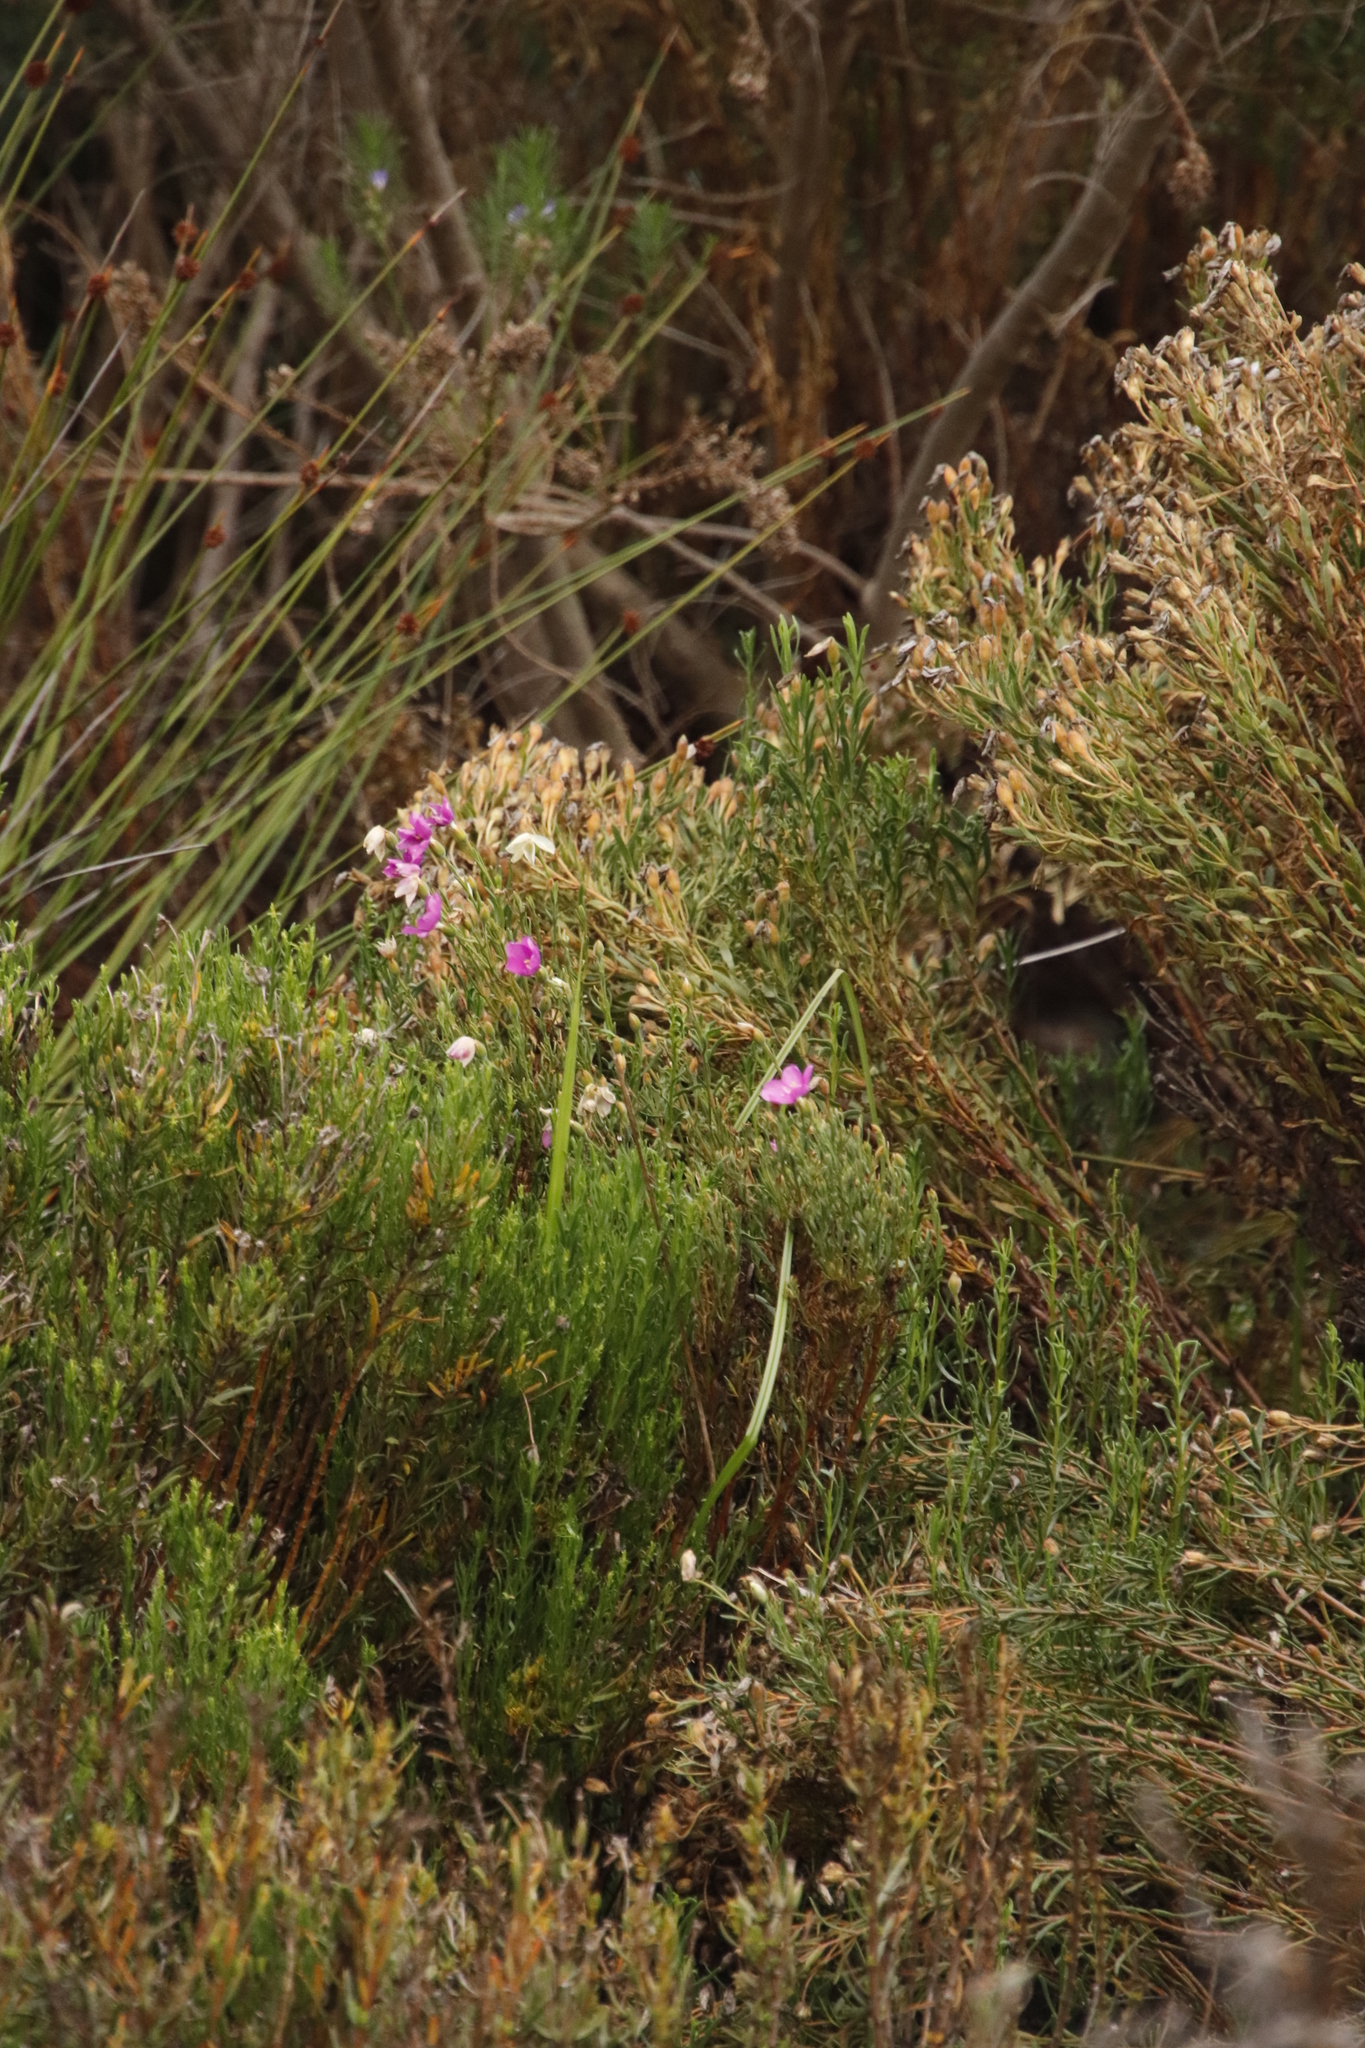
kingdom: Plantae
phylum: Tracheophyta
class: Magnoliopsida
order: Gentianales
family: Gentianaceae
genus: Orphium
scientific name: Orphium frutescens
